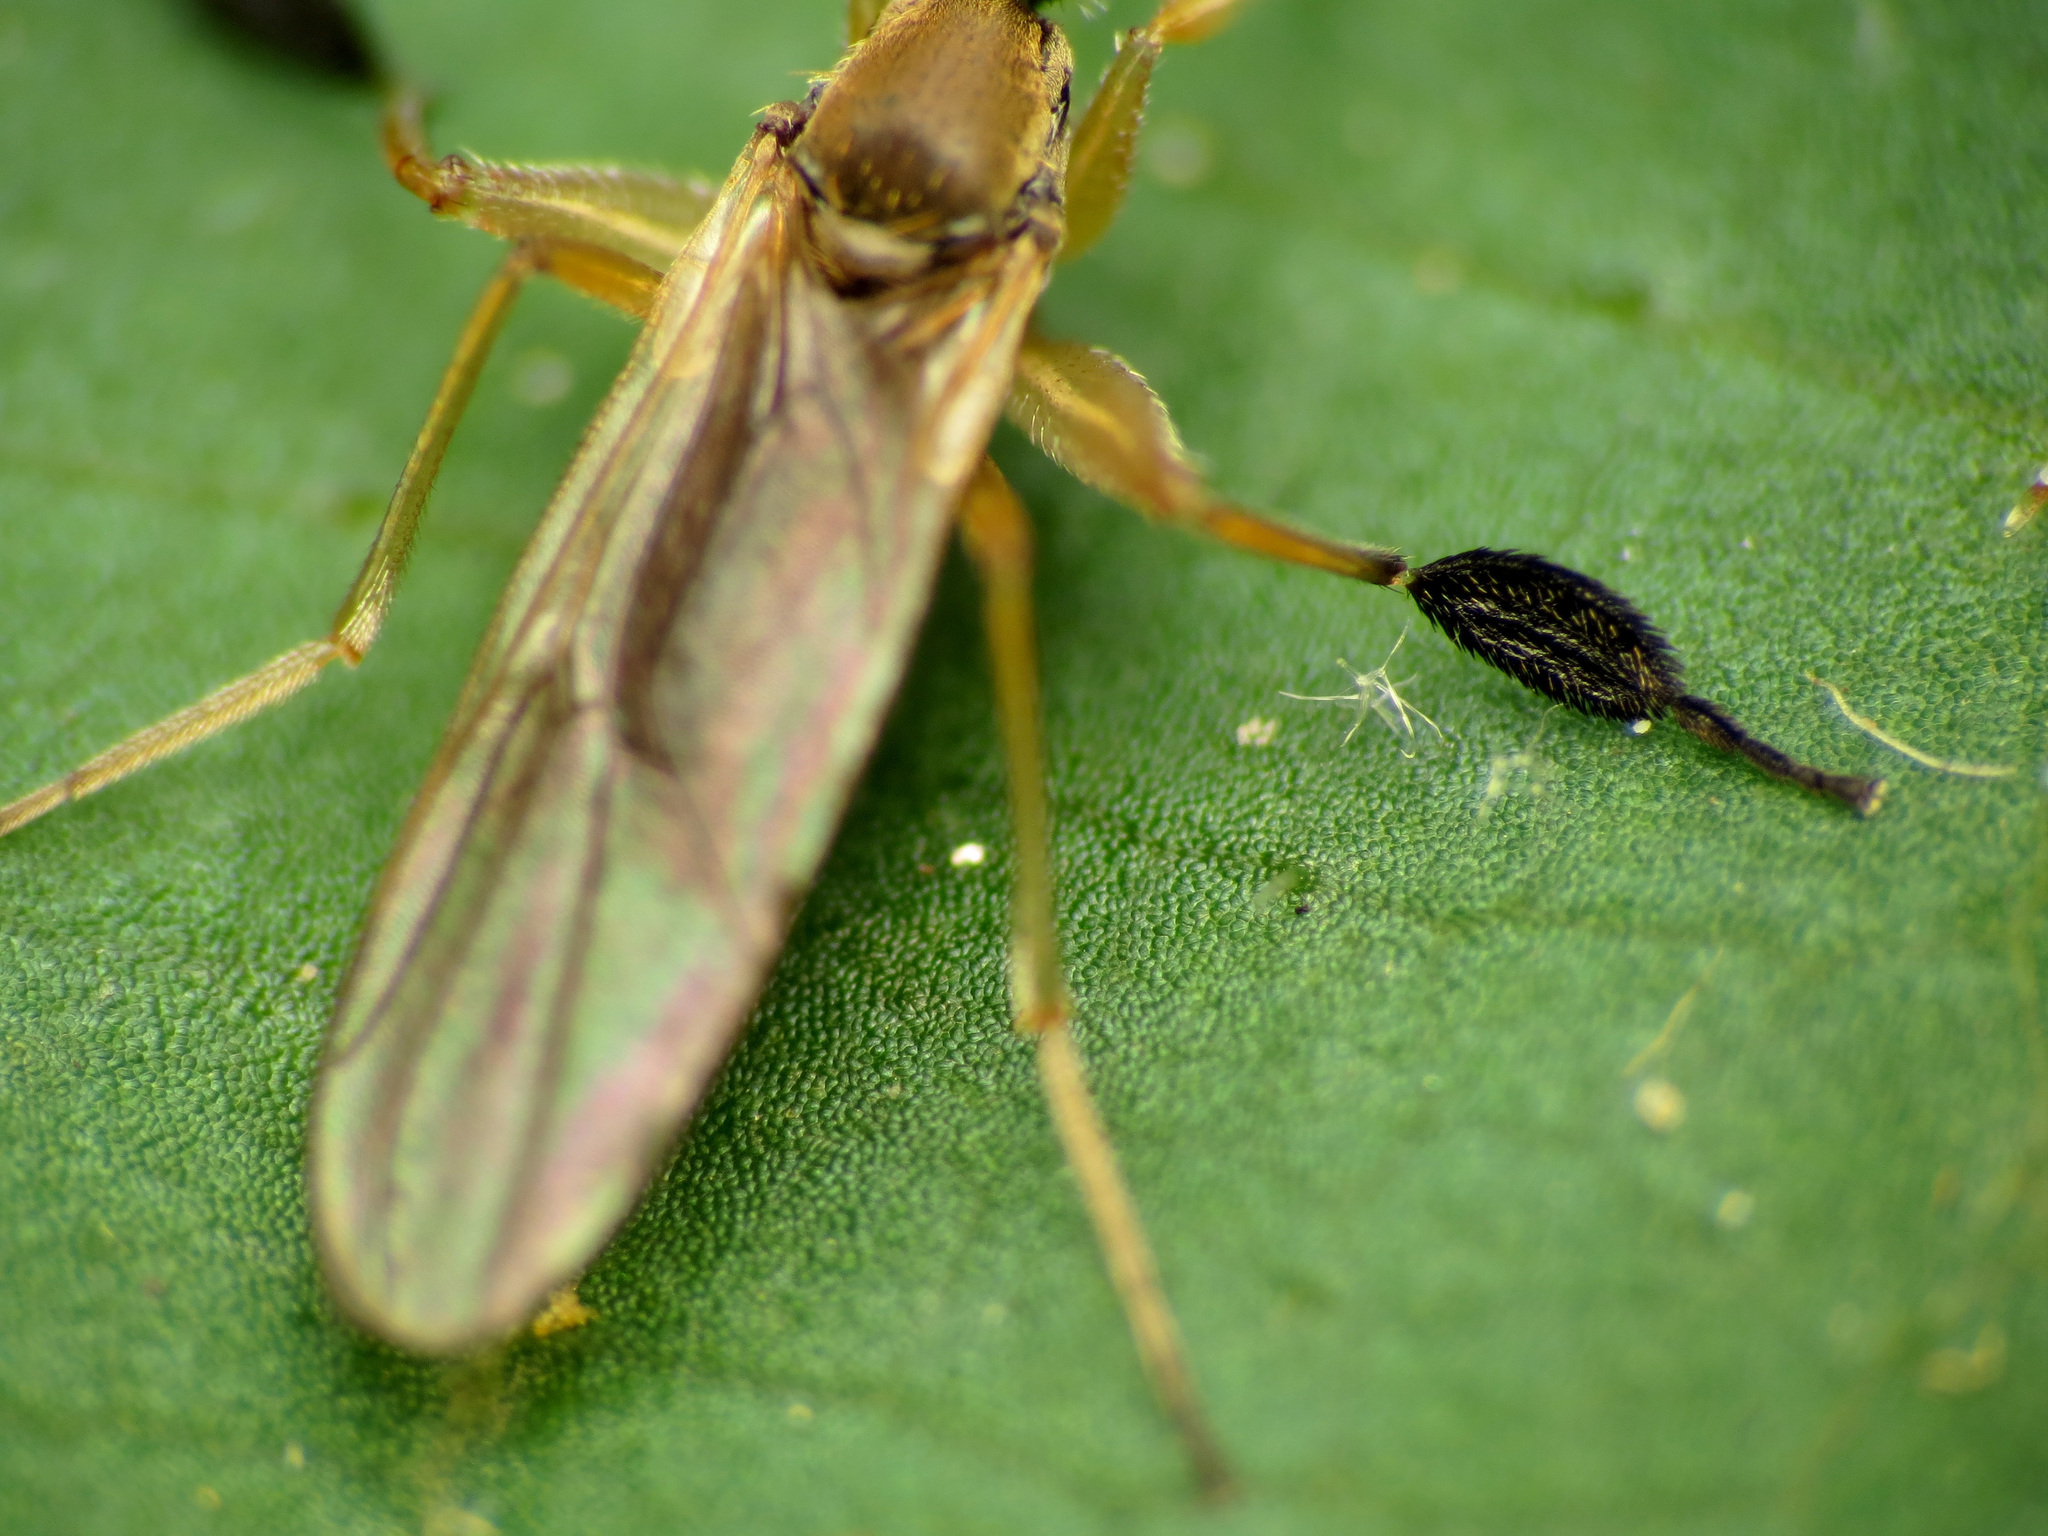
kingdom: Animalia
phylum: Arthropoda
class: Insecta
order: Diptera
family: Hybotidae
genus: Platypalpus
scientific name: Platypalpus discifer
